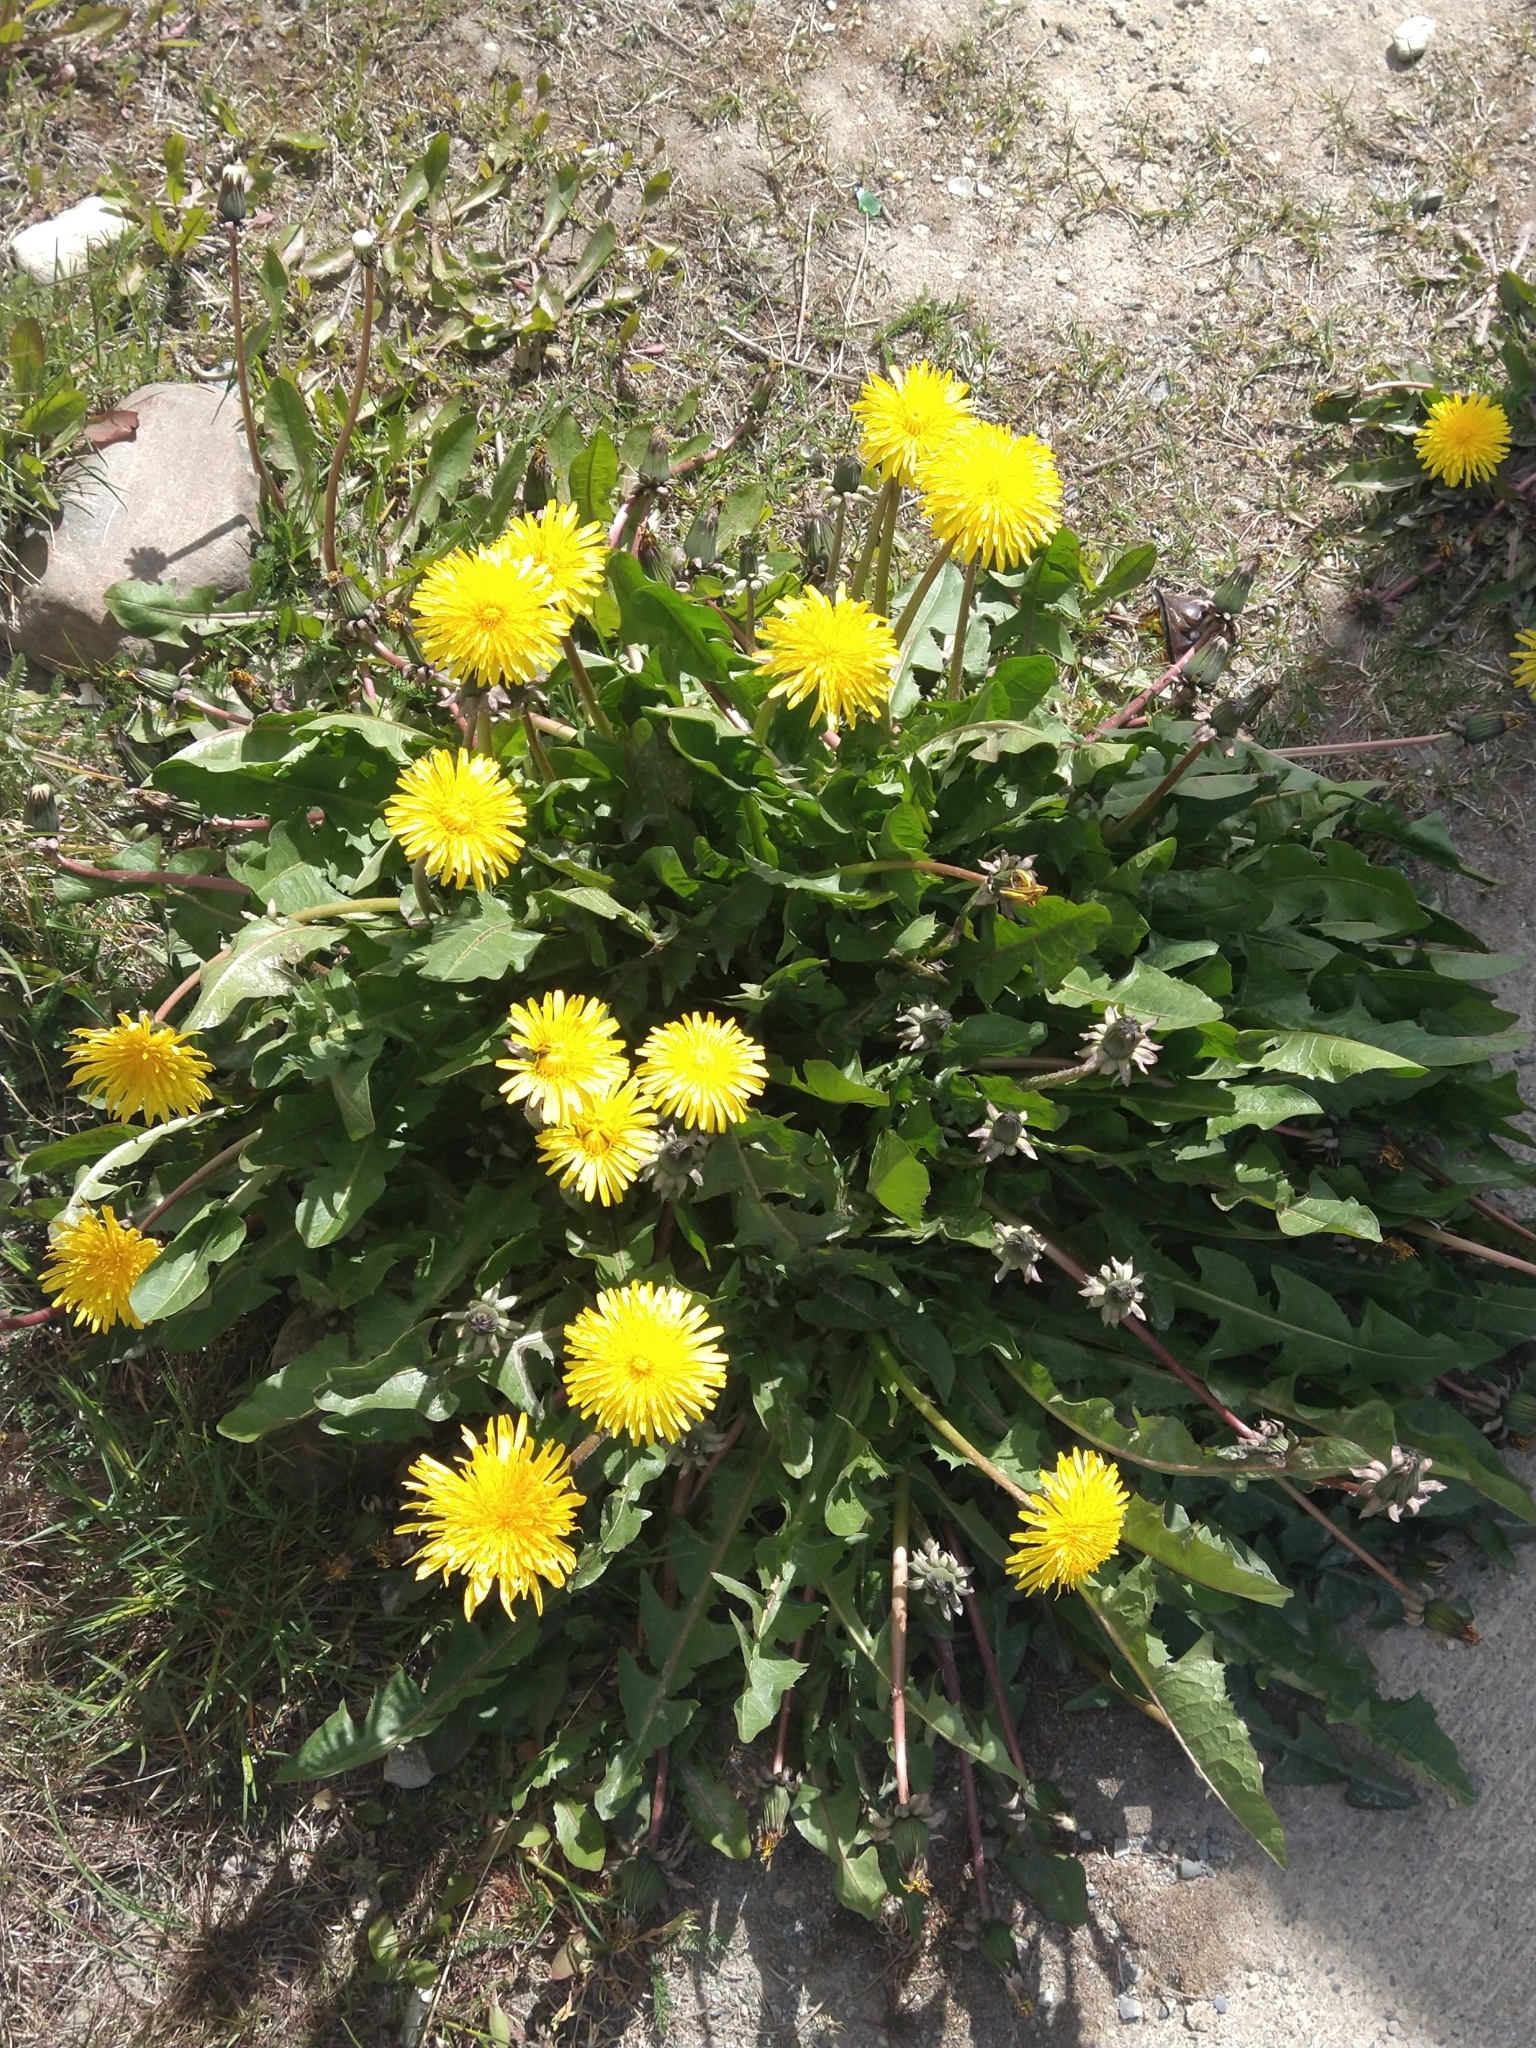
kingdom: Plantae
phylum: Tracheophyta
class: Magnoliopsida
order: Asterales
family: Asteraceae
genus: Taraxacum
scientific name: Taraxacum officinale
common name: Common dandelion
